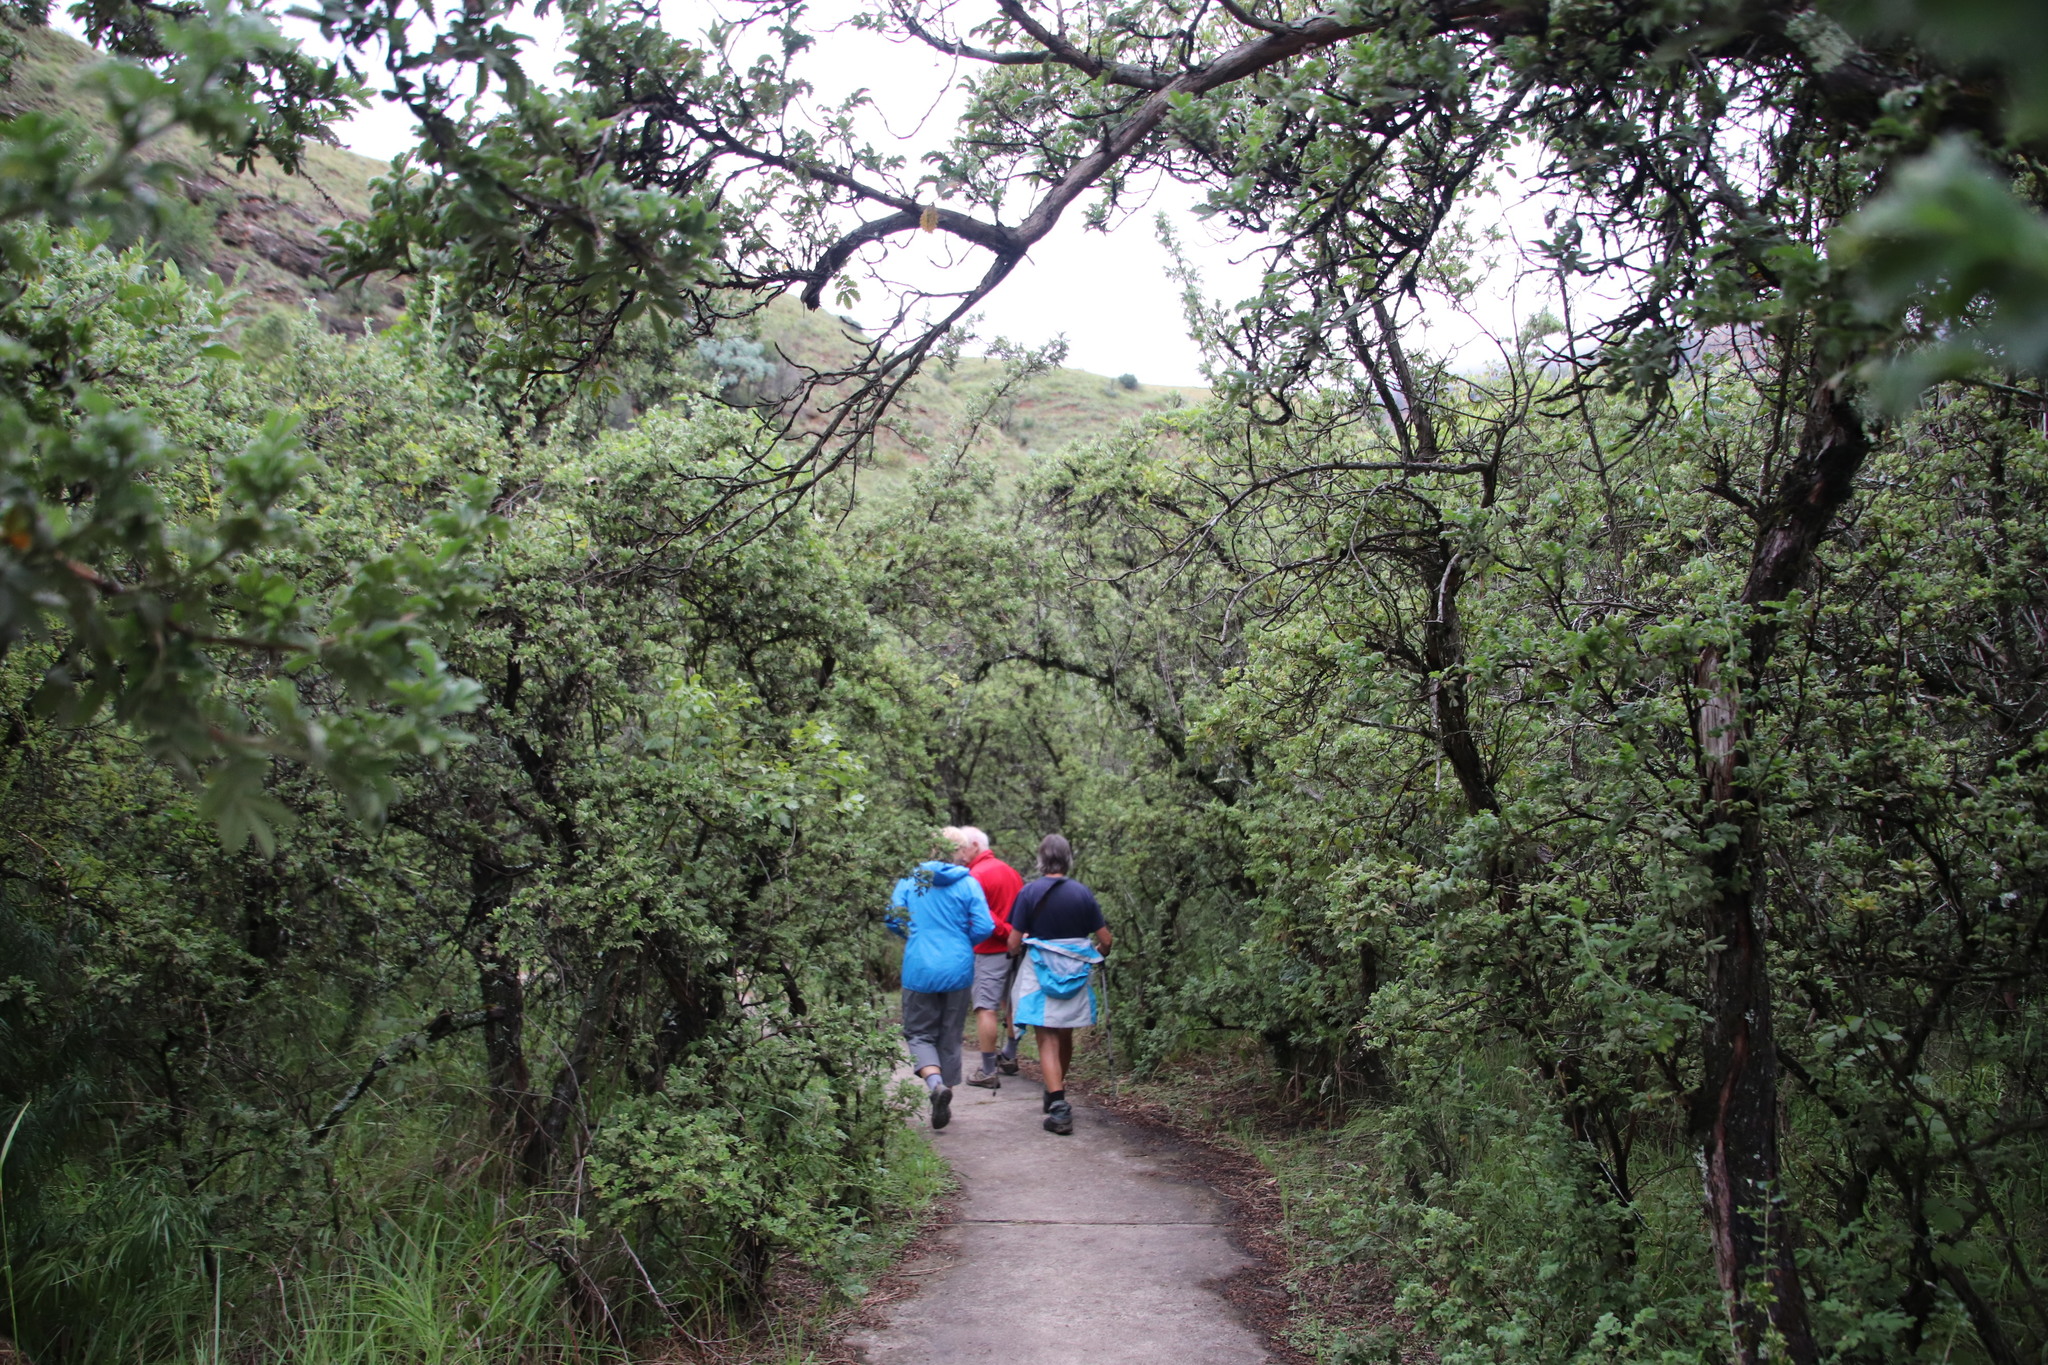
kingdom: Plantae
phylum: Tracheophyta
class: Magnoliopsida
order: Rosales
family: Rosaceae
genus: Leucosidea
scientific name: Leucosidea sericea
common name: Oldwood
